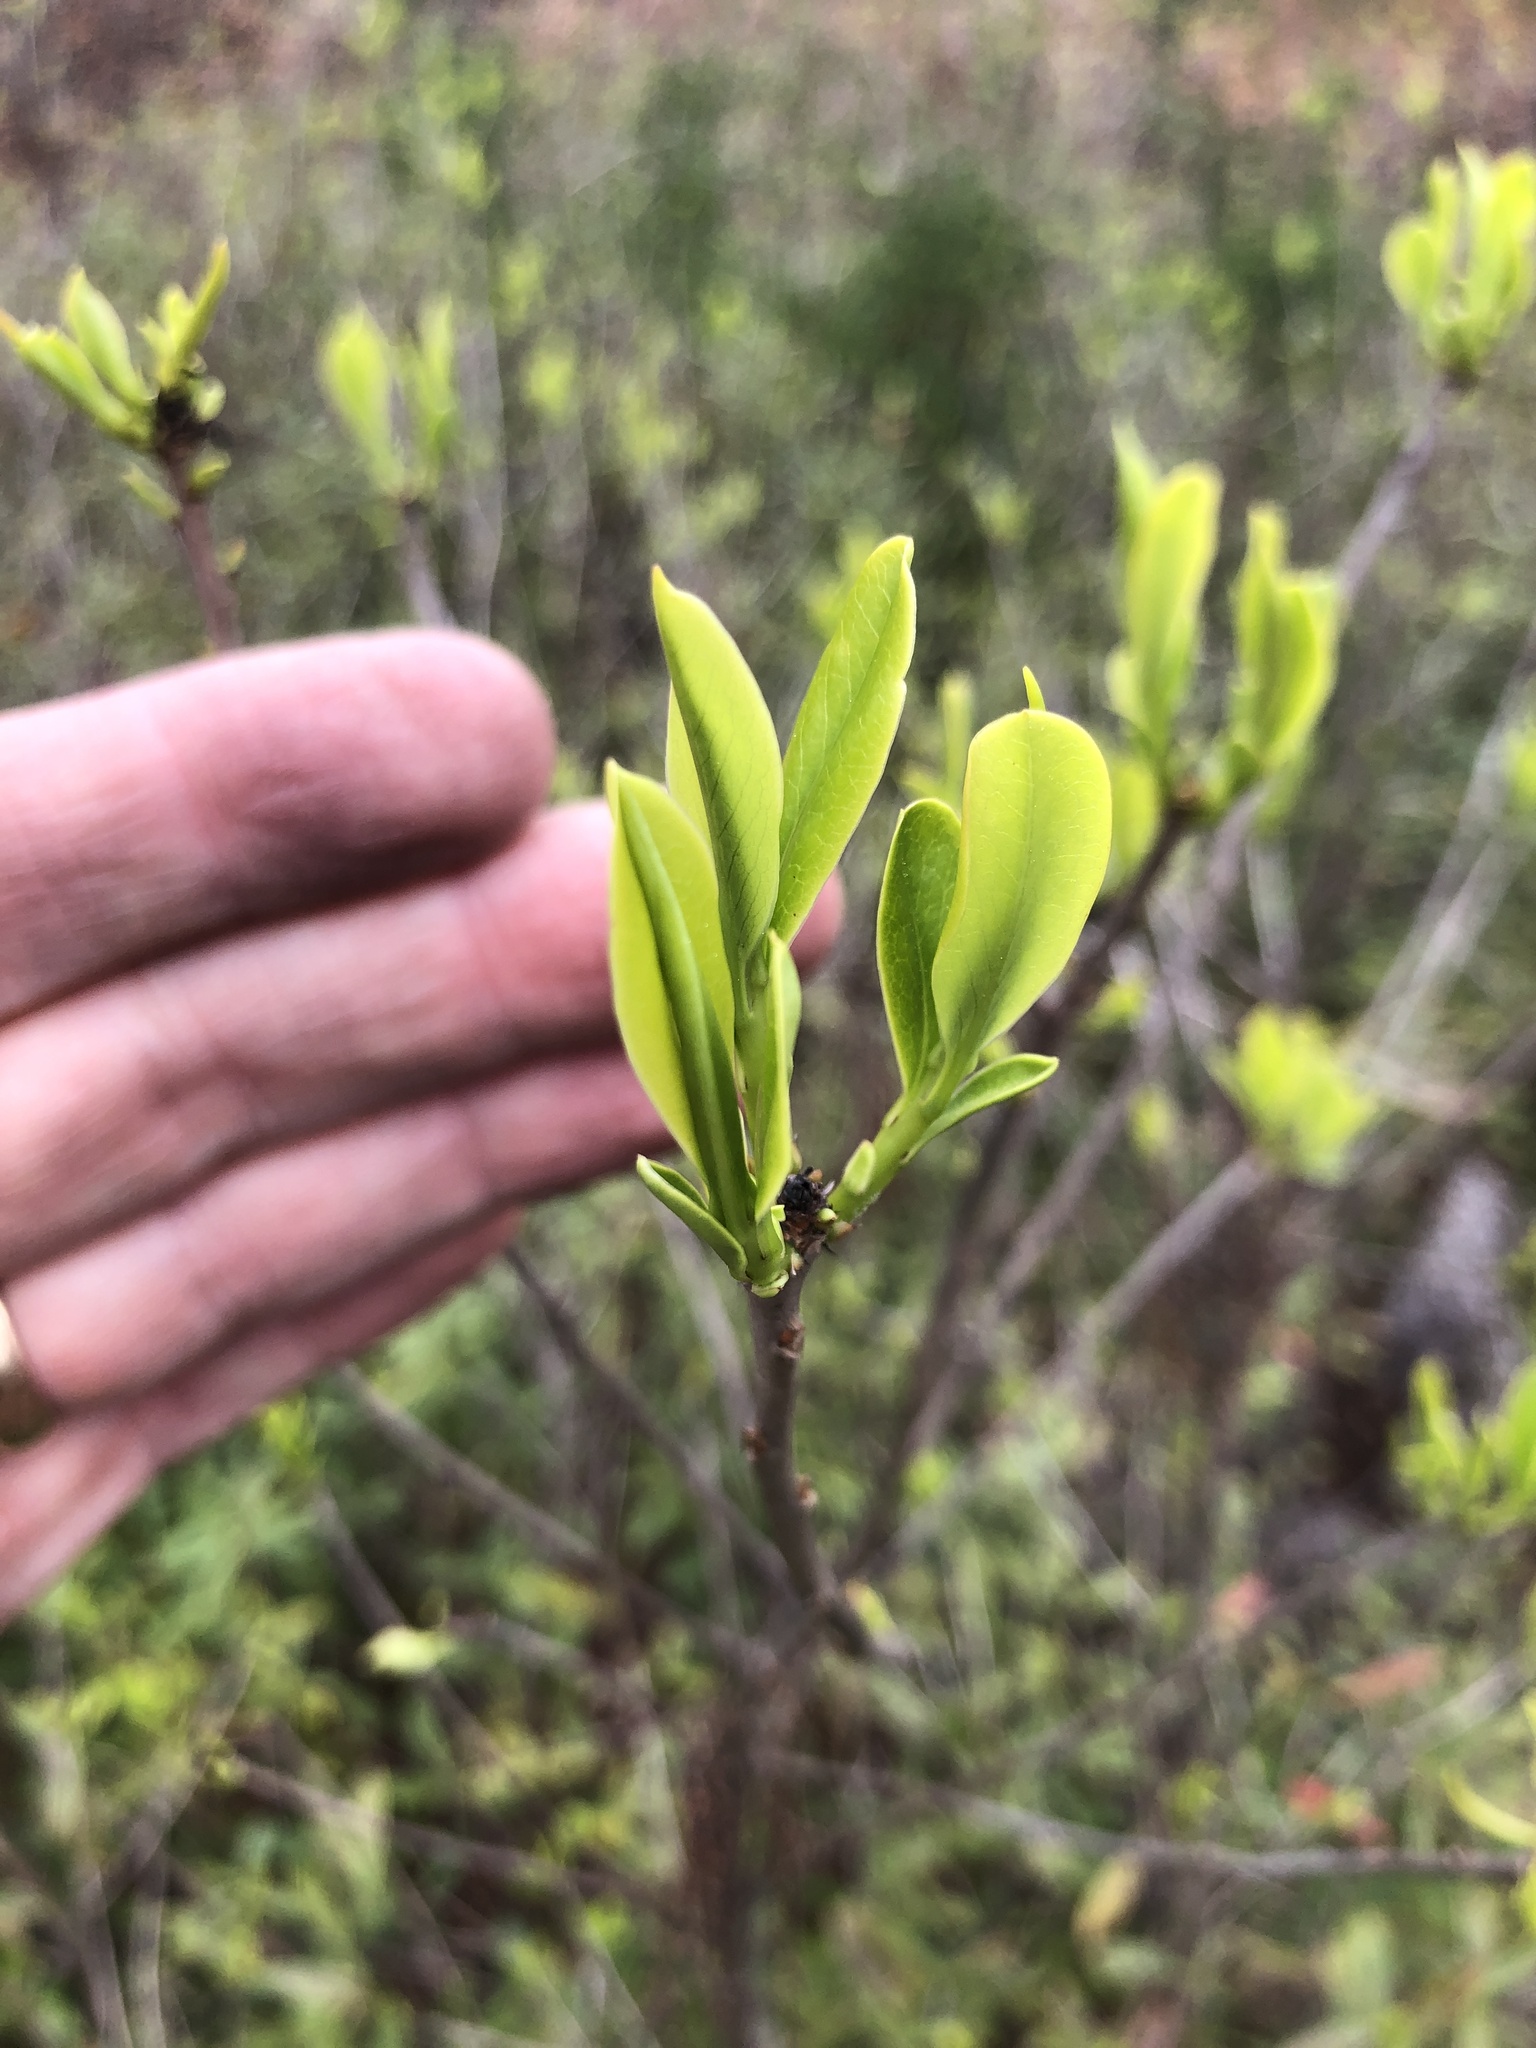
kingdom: Plantae
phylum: Tracheophyta
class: Magnoliopsida
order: Ericales
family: Cyrillaceae
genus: Cyrilla
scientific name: Cyrilla racemiflora
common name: Black titi
